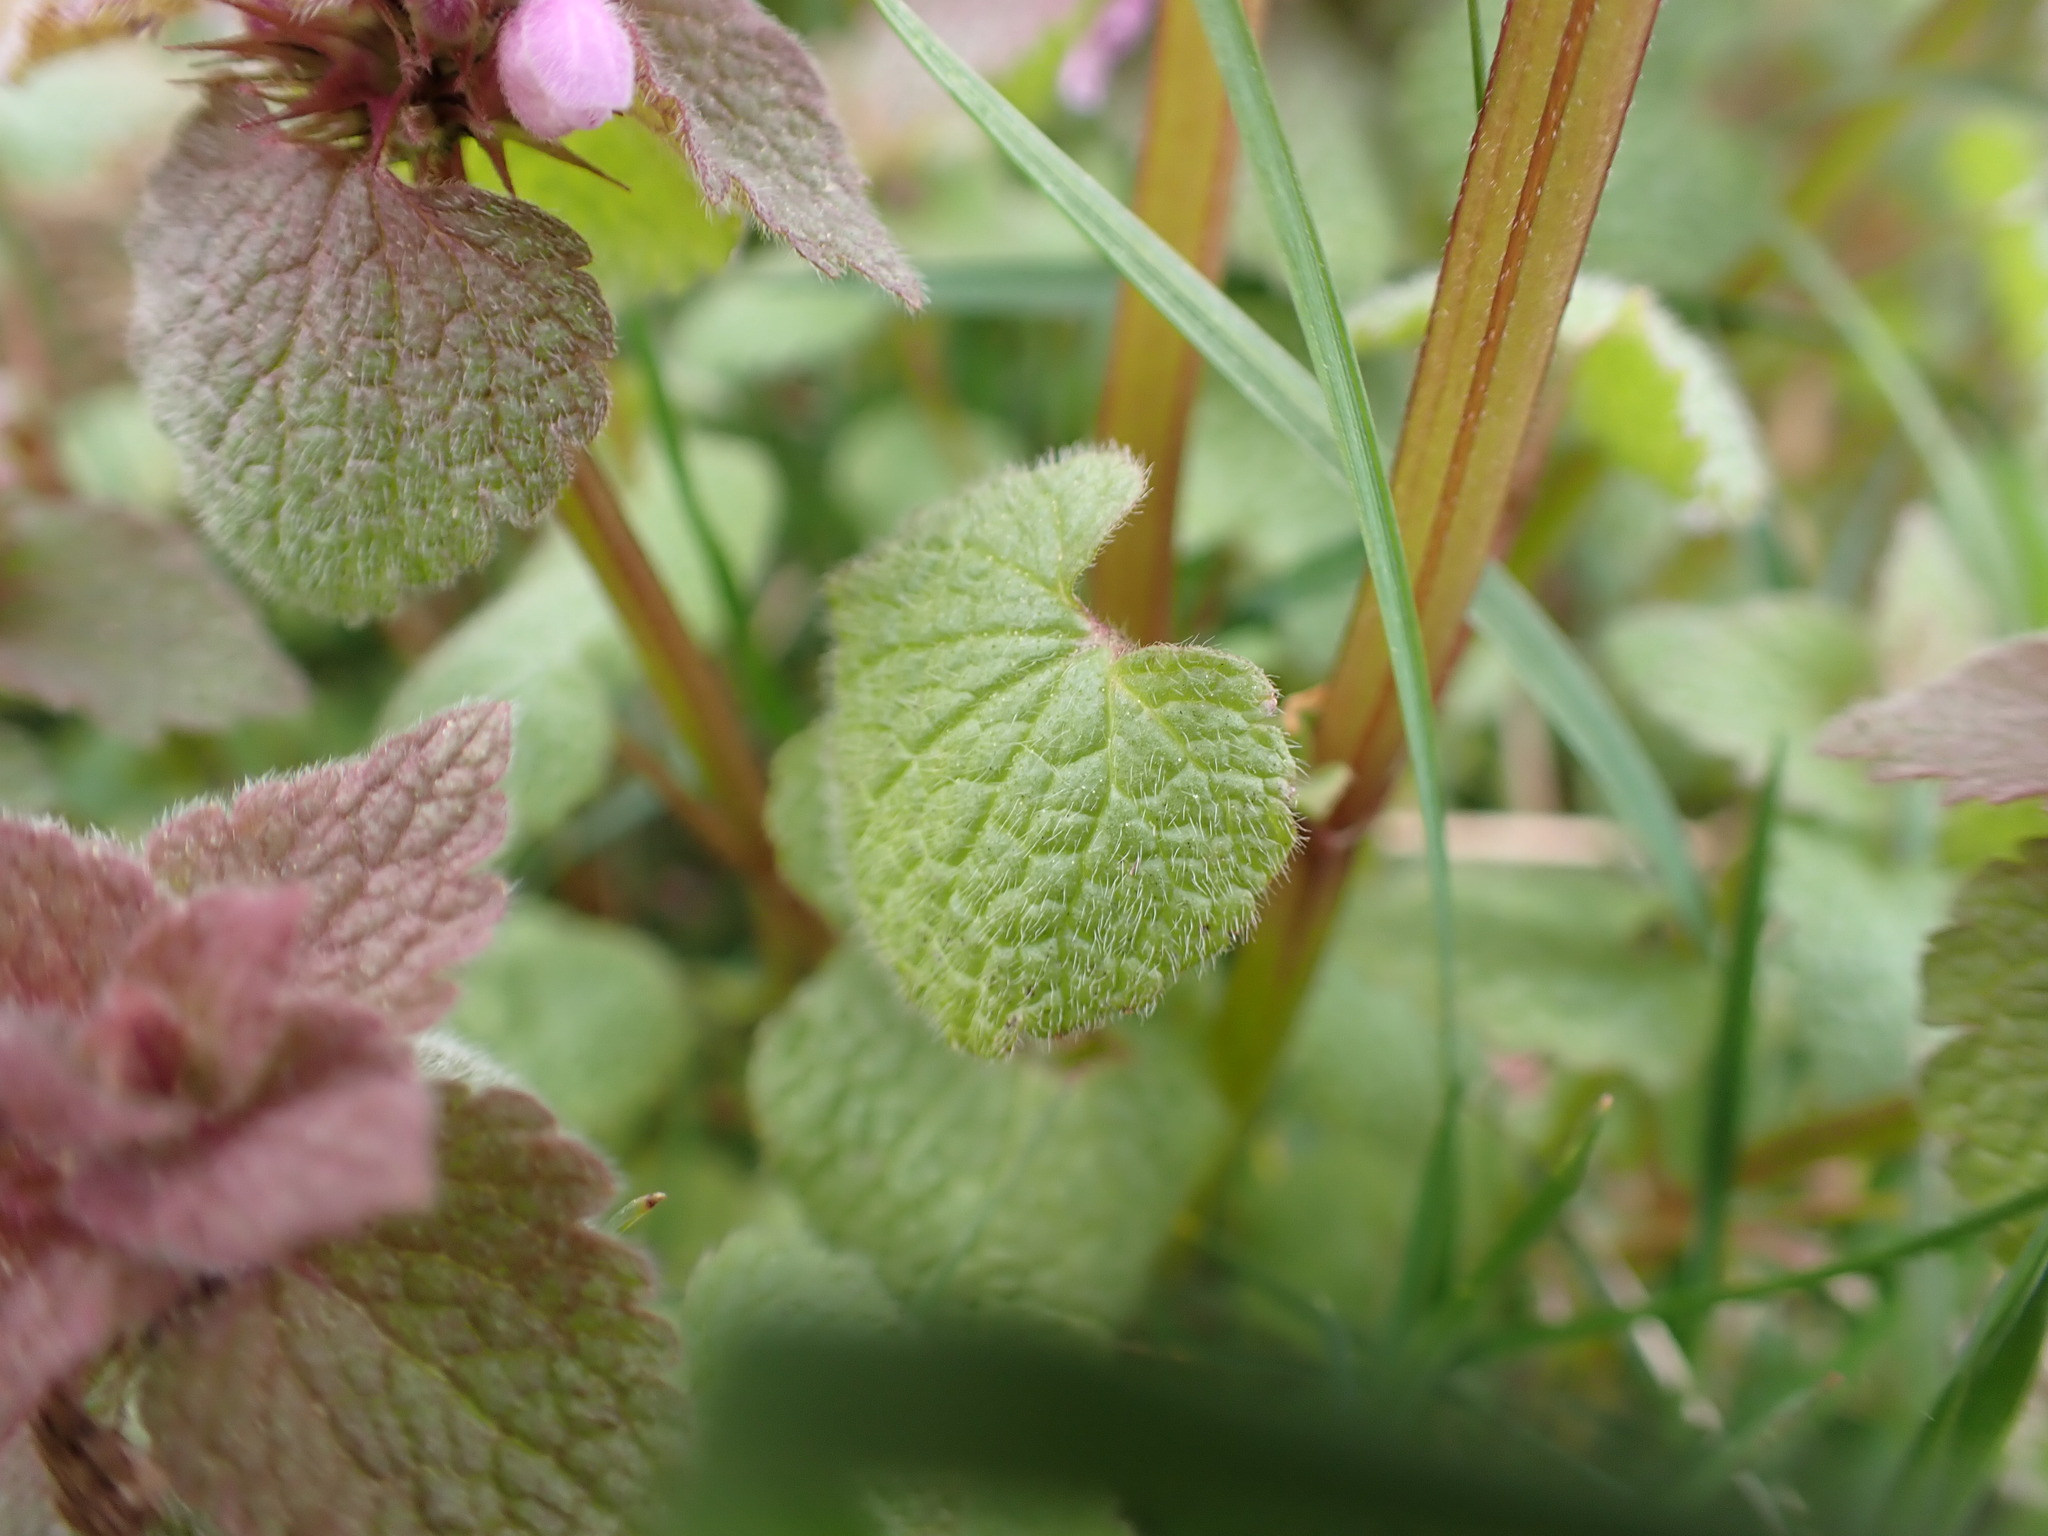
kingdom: Plantae
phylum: Tracheophyta
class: Magnoliopsida
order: Lamiales
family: Lamiaceae
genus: Lamium
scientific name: Lamium purpureum
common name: Red dead-nettle
